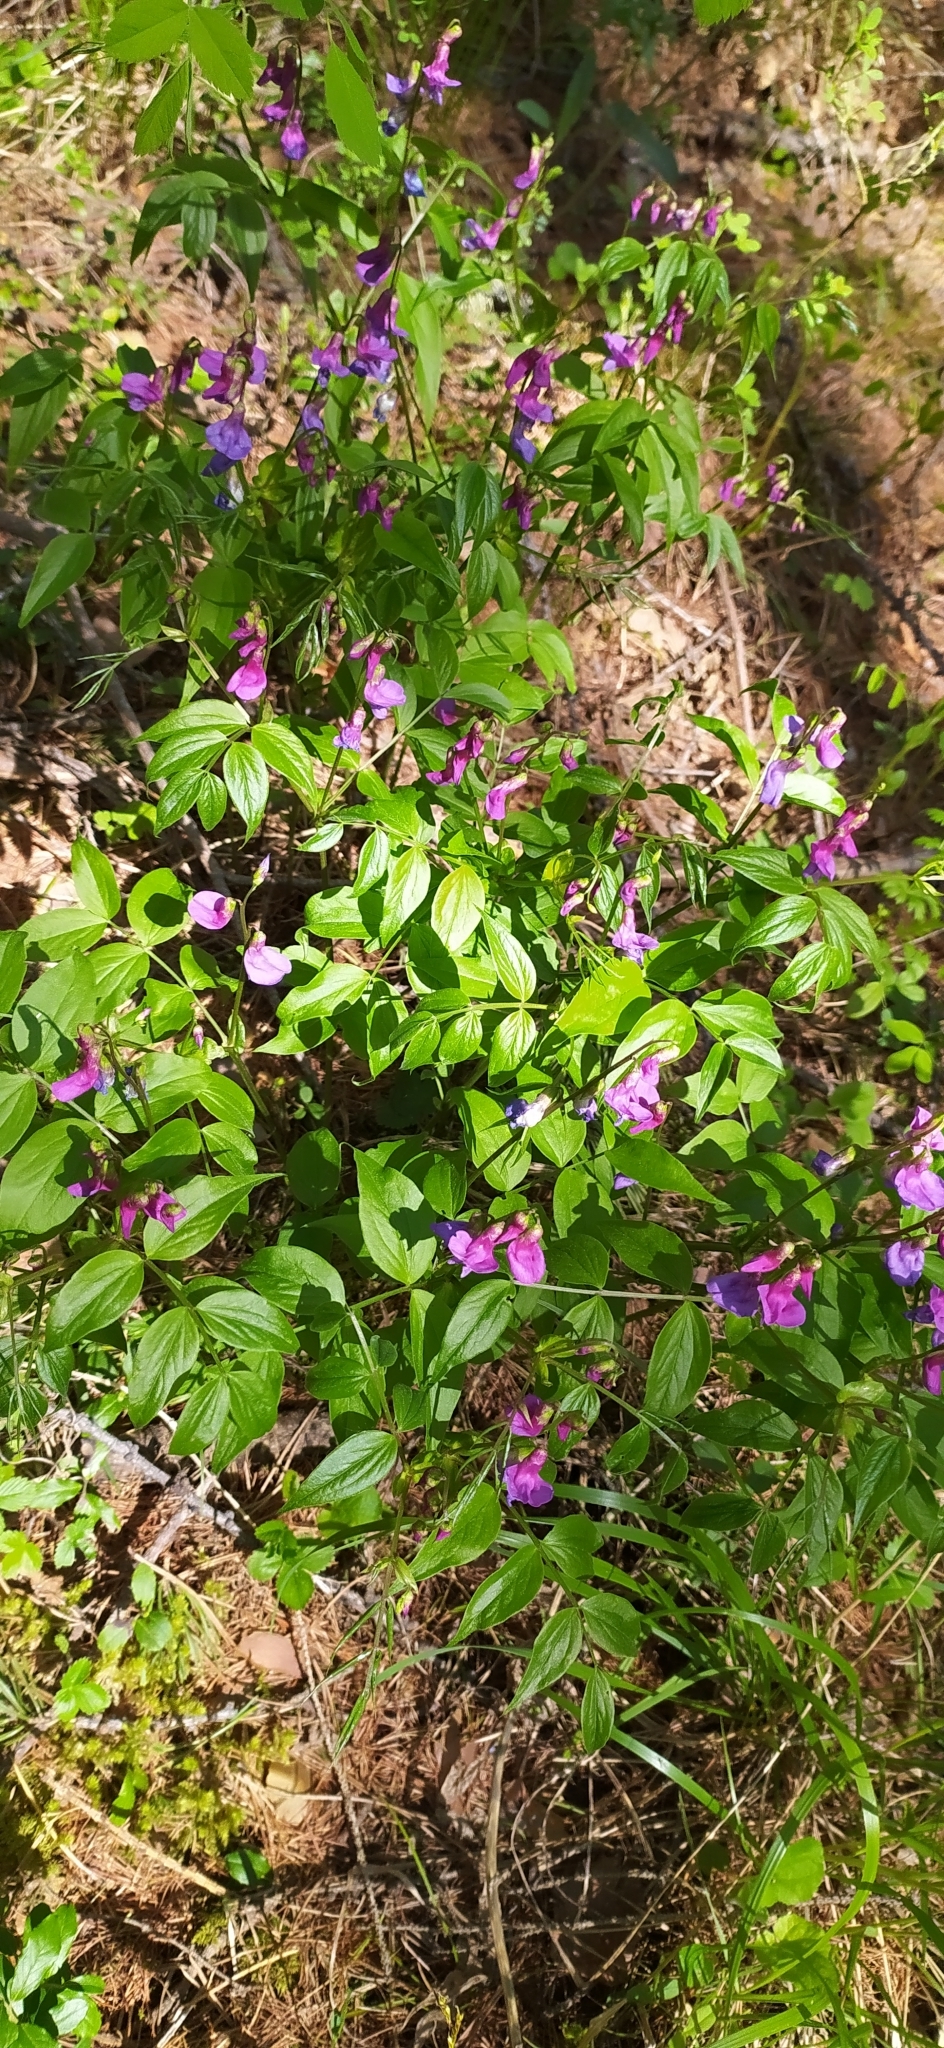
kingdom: Plantae
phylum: Tracheophyta
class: Magnoliopsida
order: Fabales
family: Fabaceae
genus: Lathyrus
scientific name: Lathyrus vernus
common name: Spring pea
